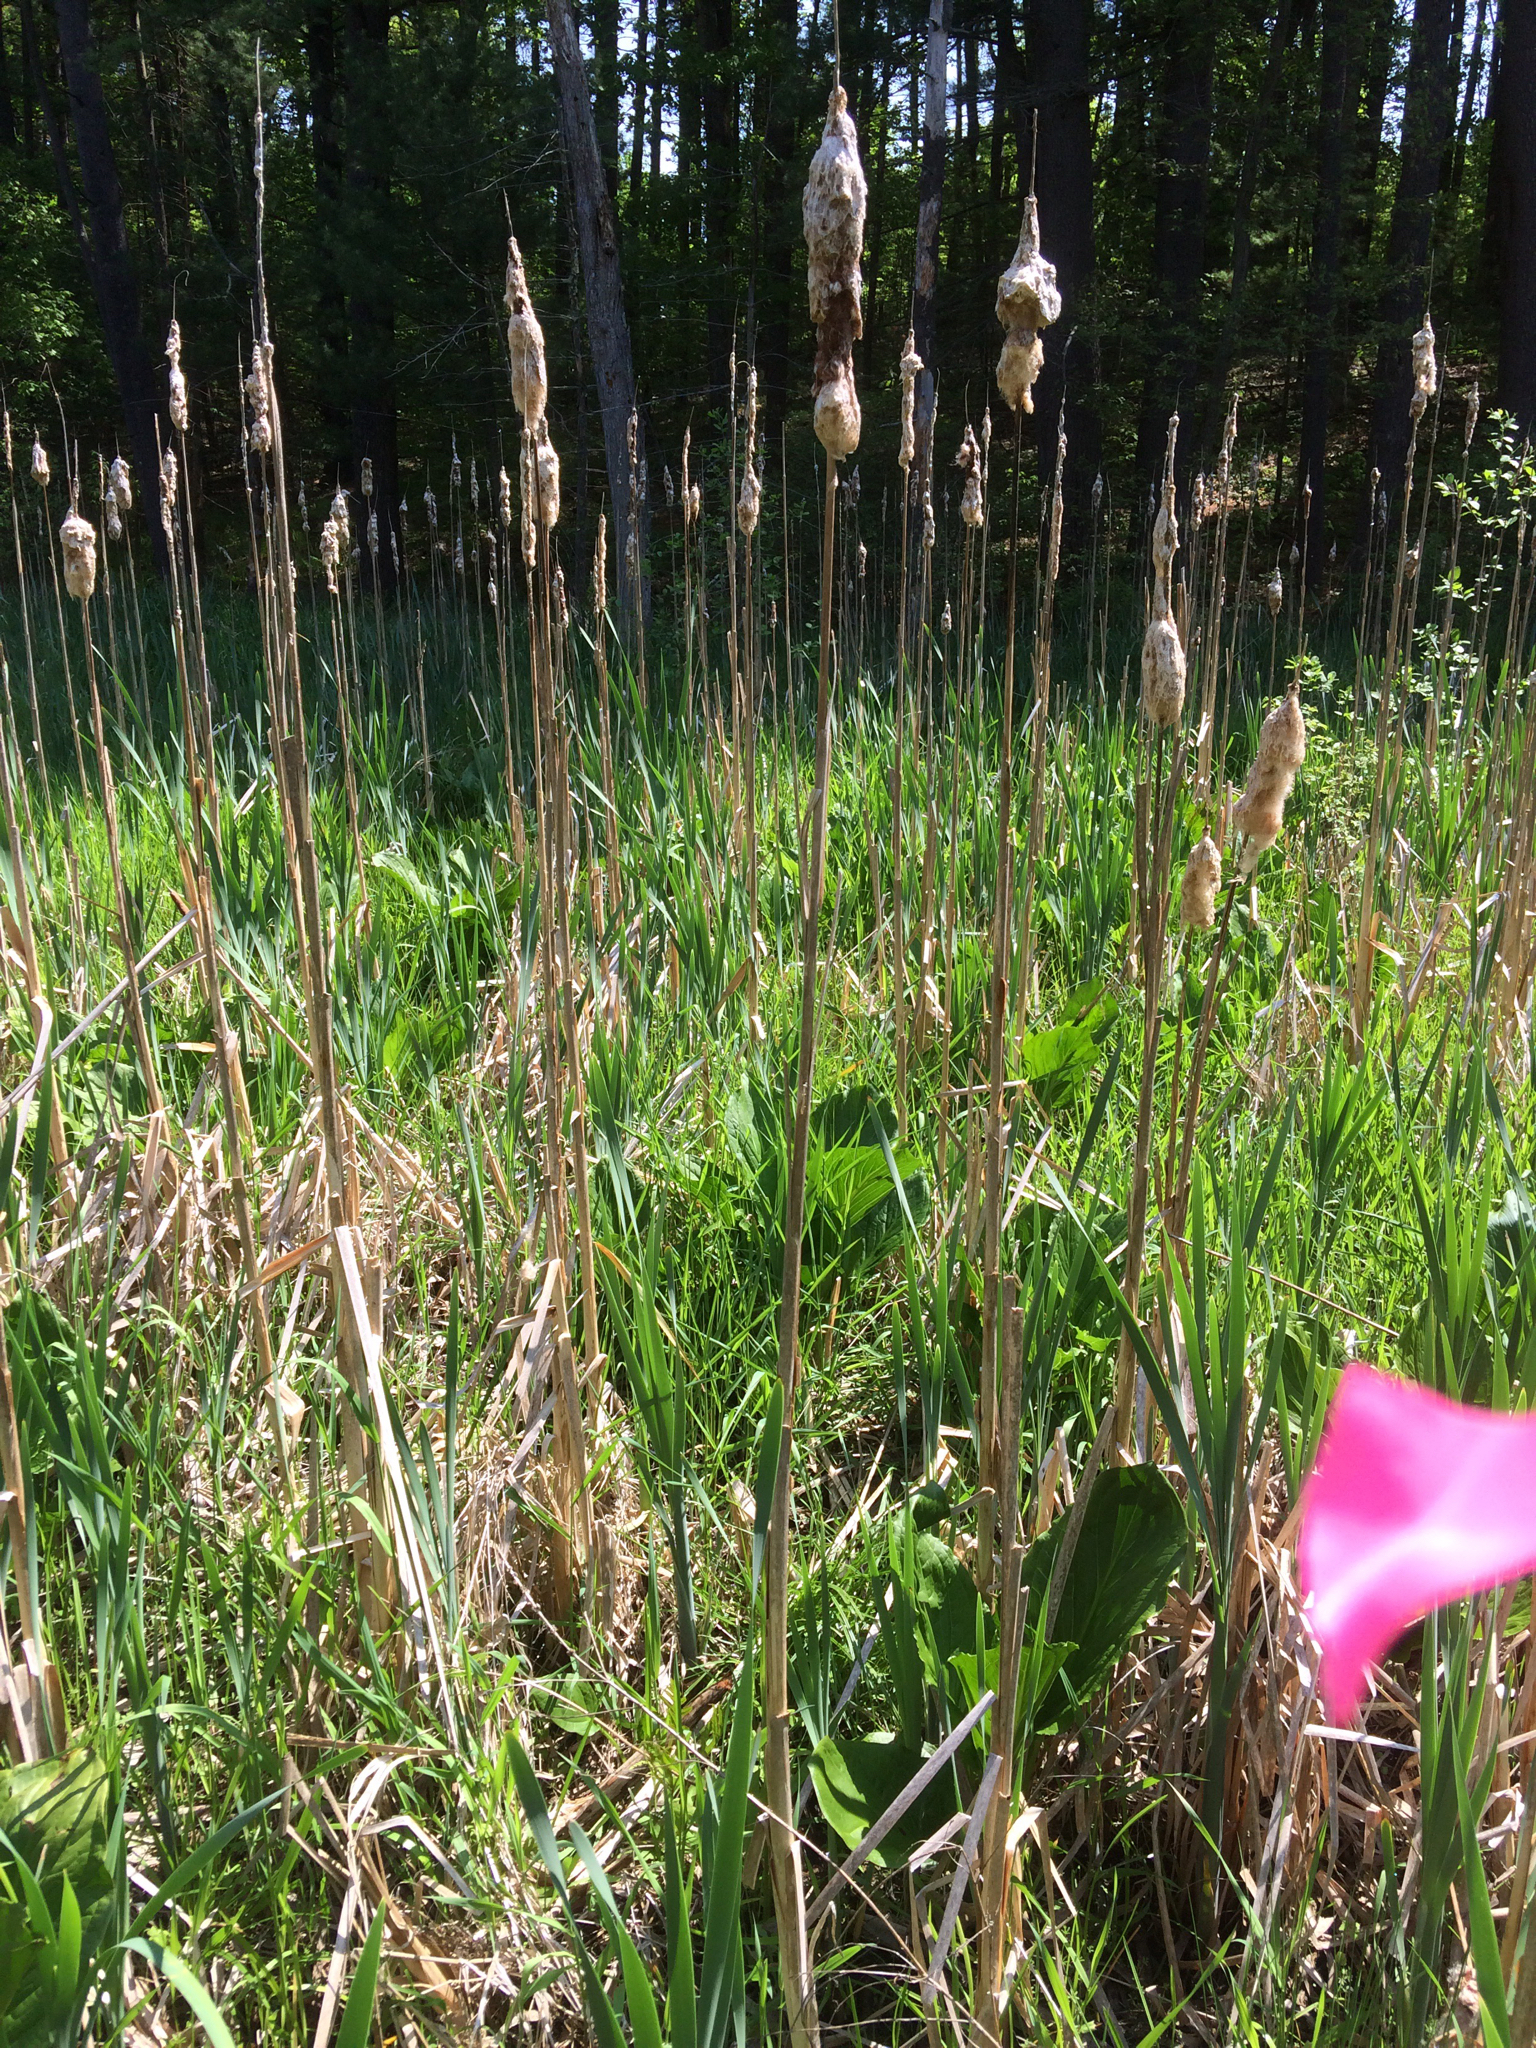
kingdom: Plantae
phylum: Tracheophyta
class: Liliopsida
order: Poales
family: Typhaceae
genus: Typha
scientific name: Typha latifolia
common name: Broadleaf cattail
